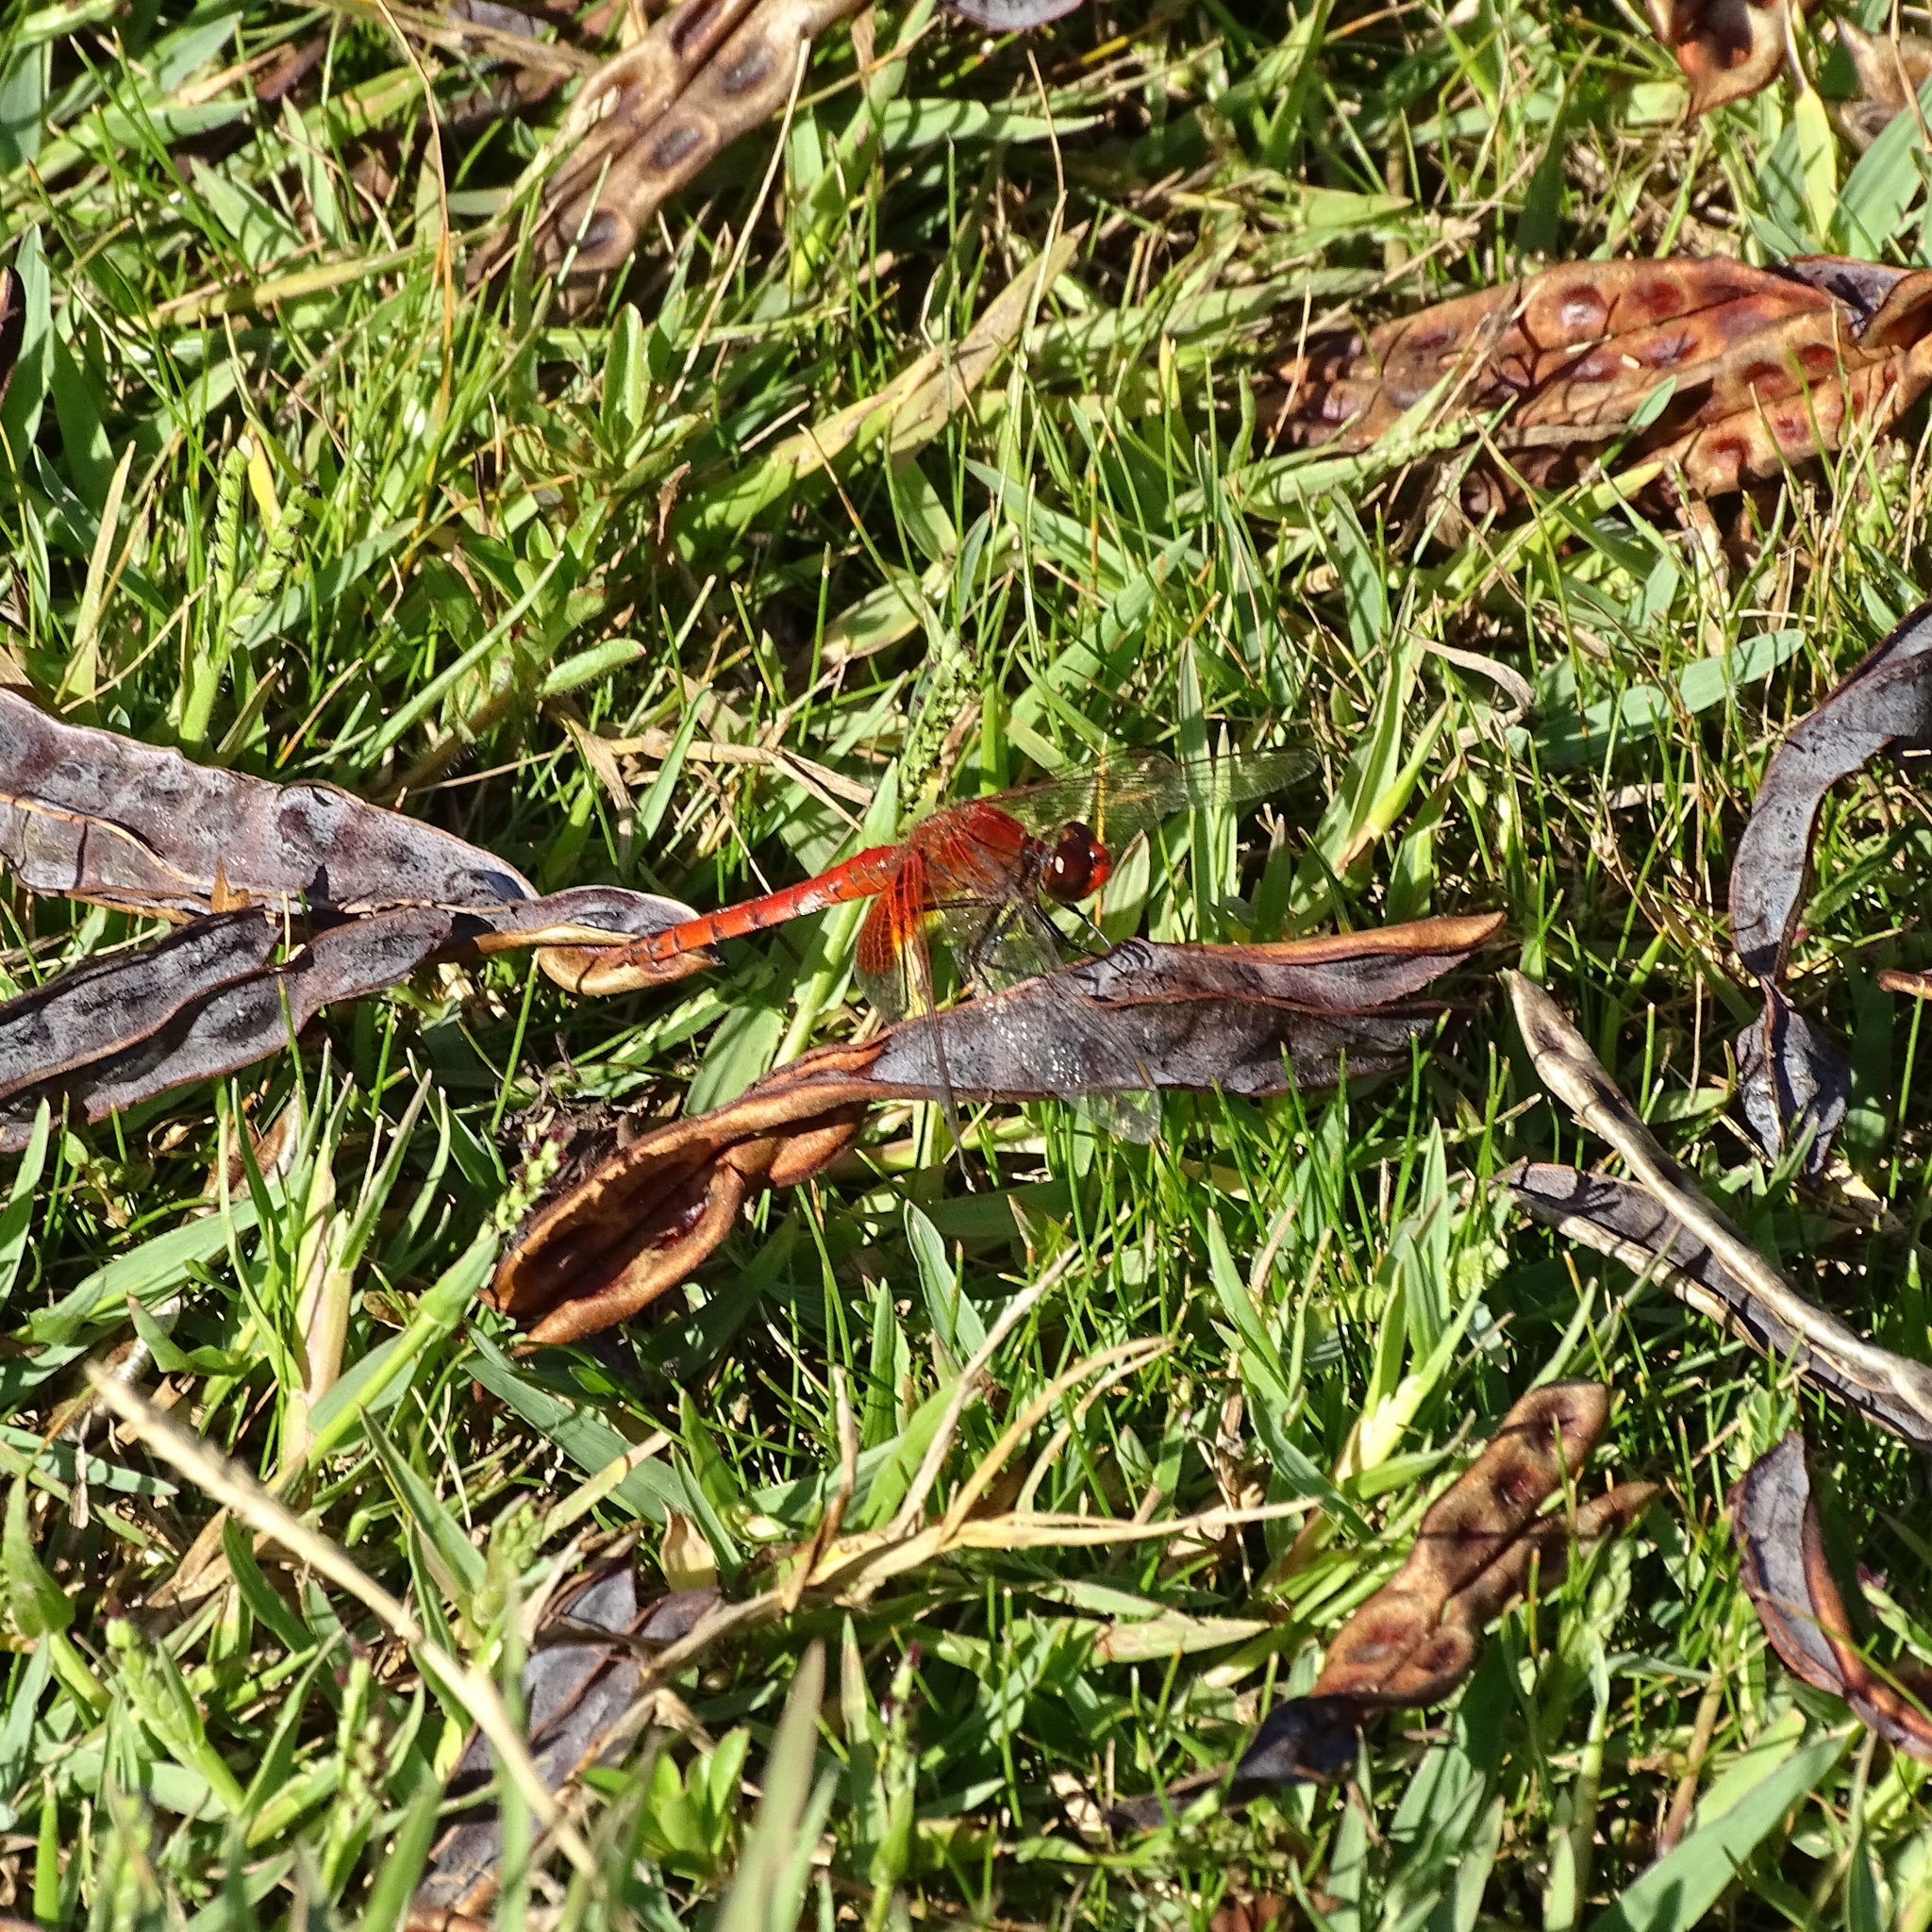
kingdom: Animalia
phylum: Arthropoda
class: Insecta
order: Odonata
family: Libellulidae
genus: Erythrodiplax
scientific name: Erythrodiplax corallina
